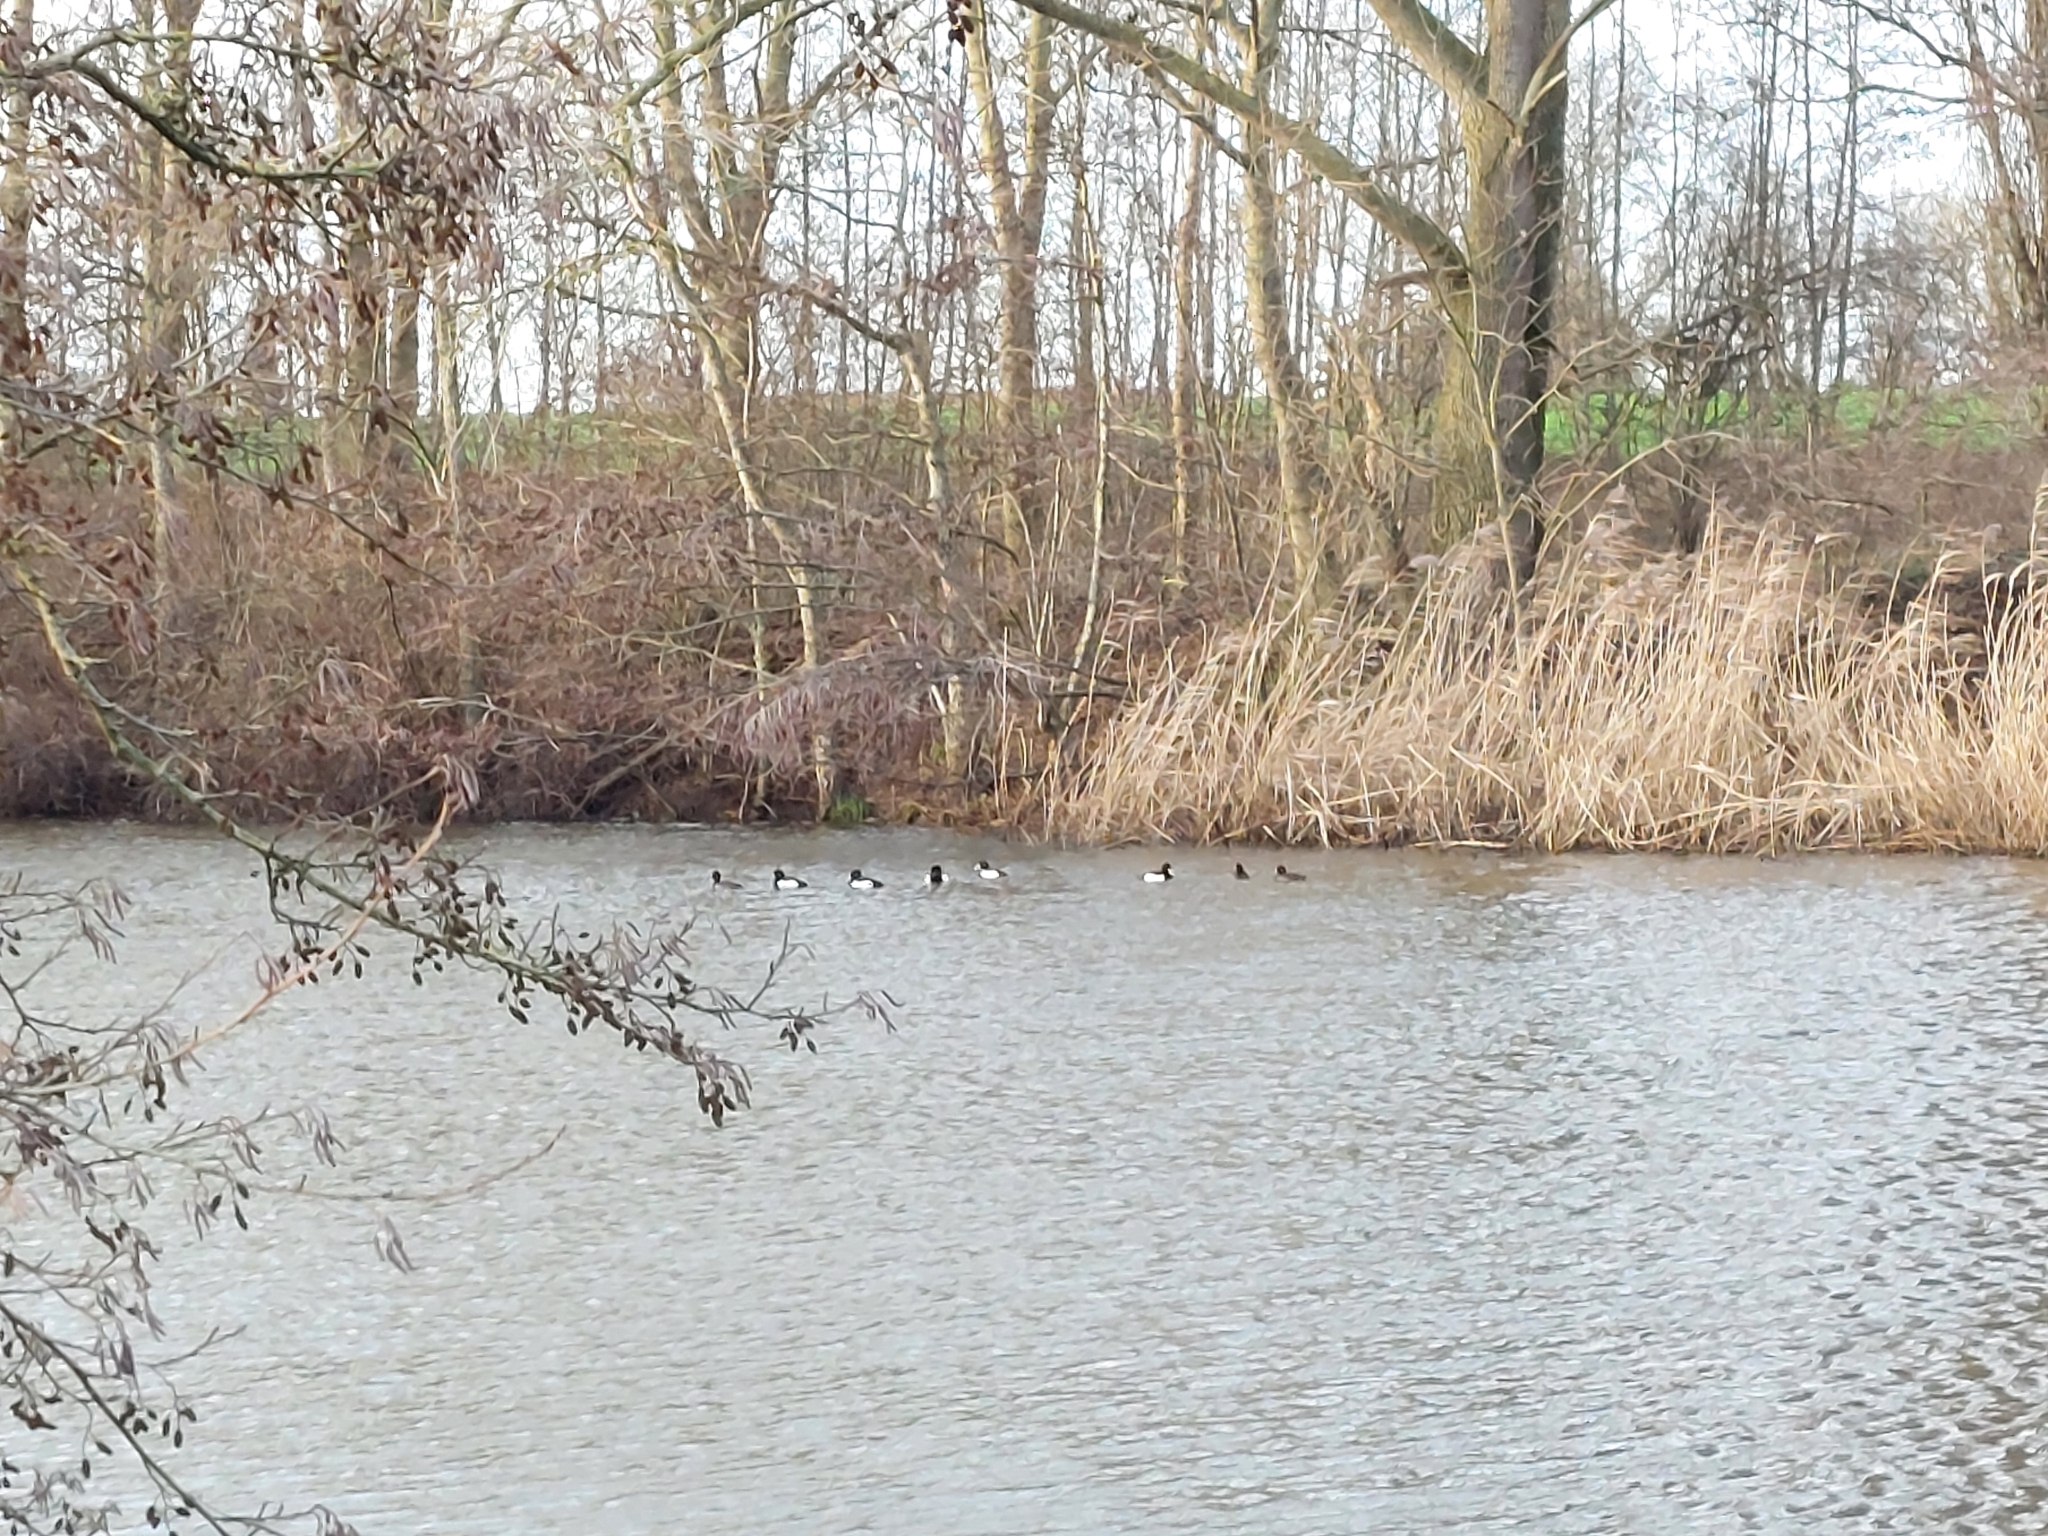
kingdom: Animalia
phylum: Chordata
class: Aves
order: Anseriformes
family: Anatidae
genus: Aythya
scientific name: Aythya fuligula
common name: Tufted duck
